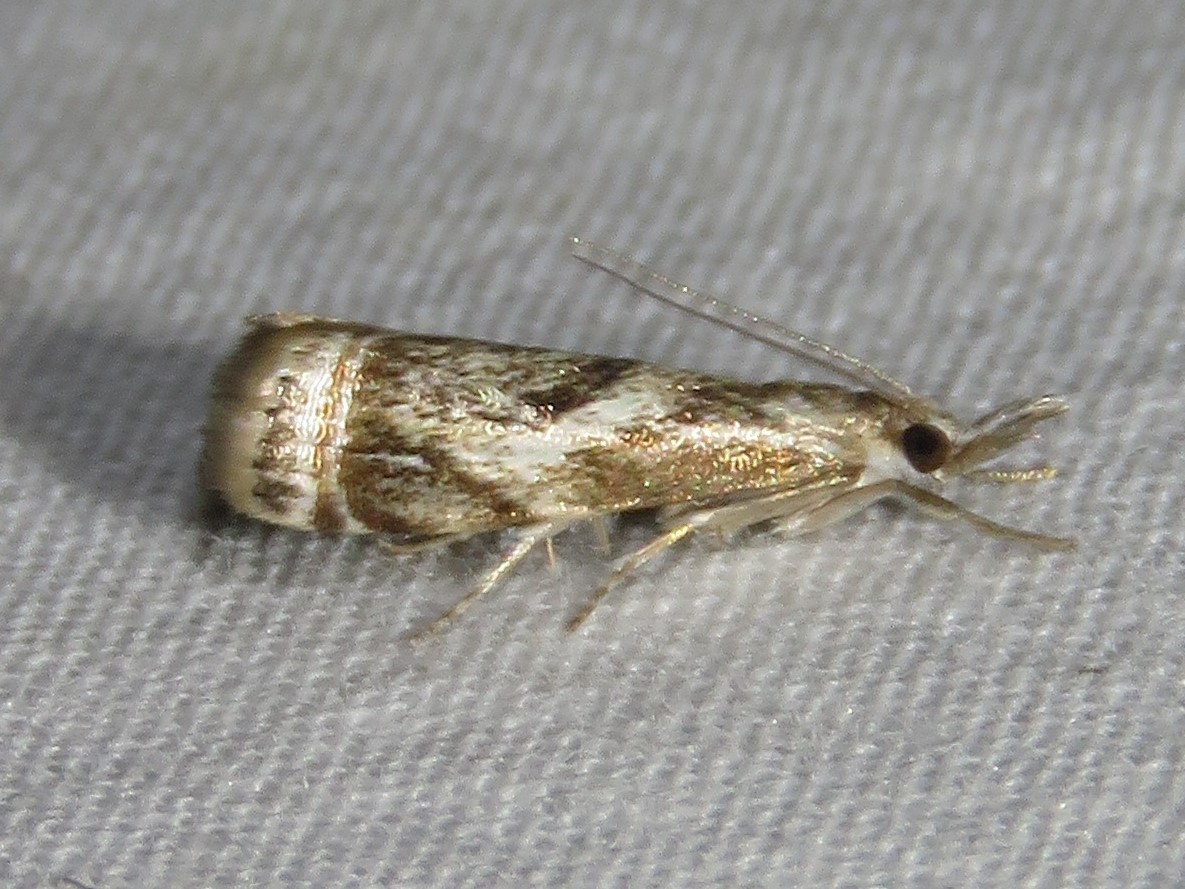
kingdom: Animalia
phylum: Arthropoda
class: Insecta
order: Lepidoptera
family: Crambidae
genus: Microcrambus
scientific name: Microcrambus elegans
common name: Elegant grass-veneer
